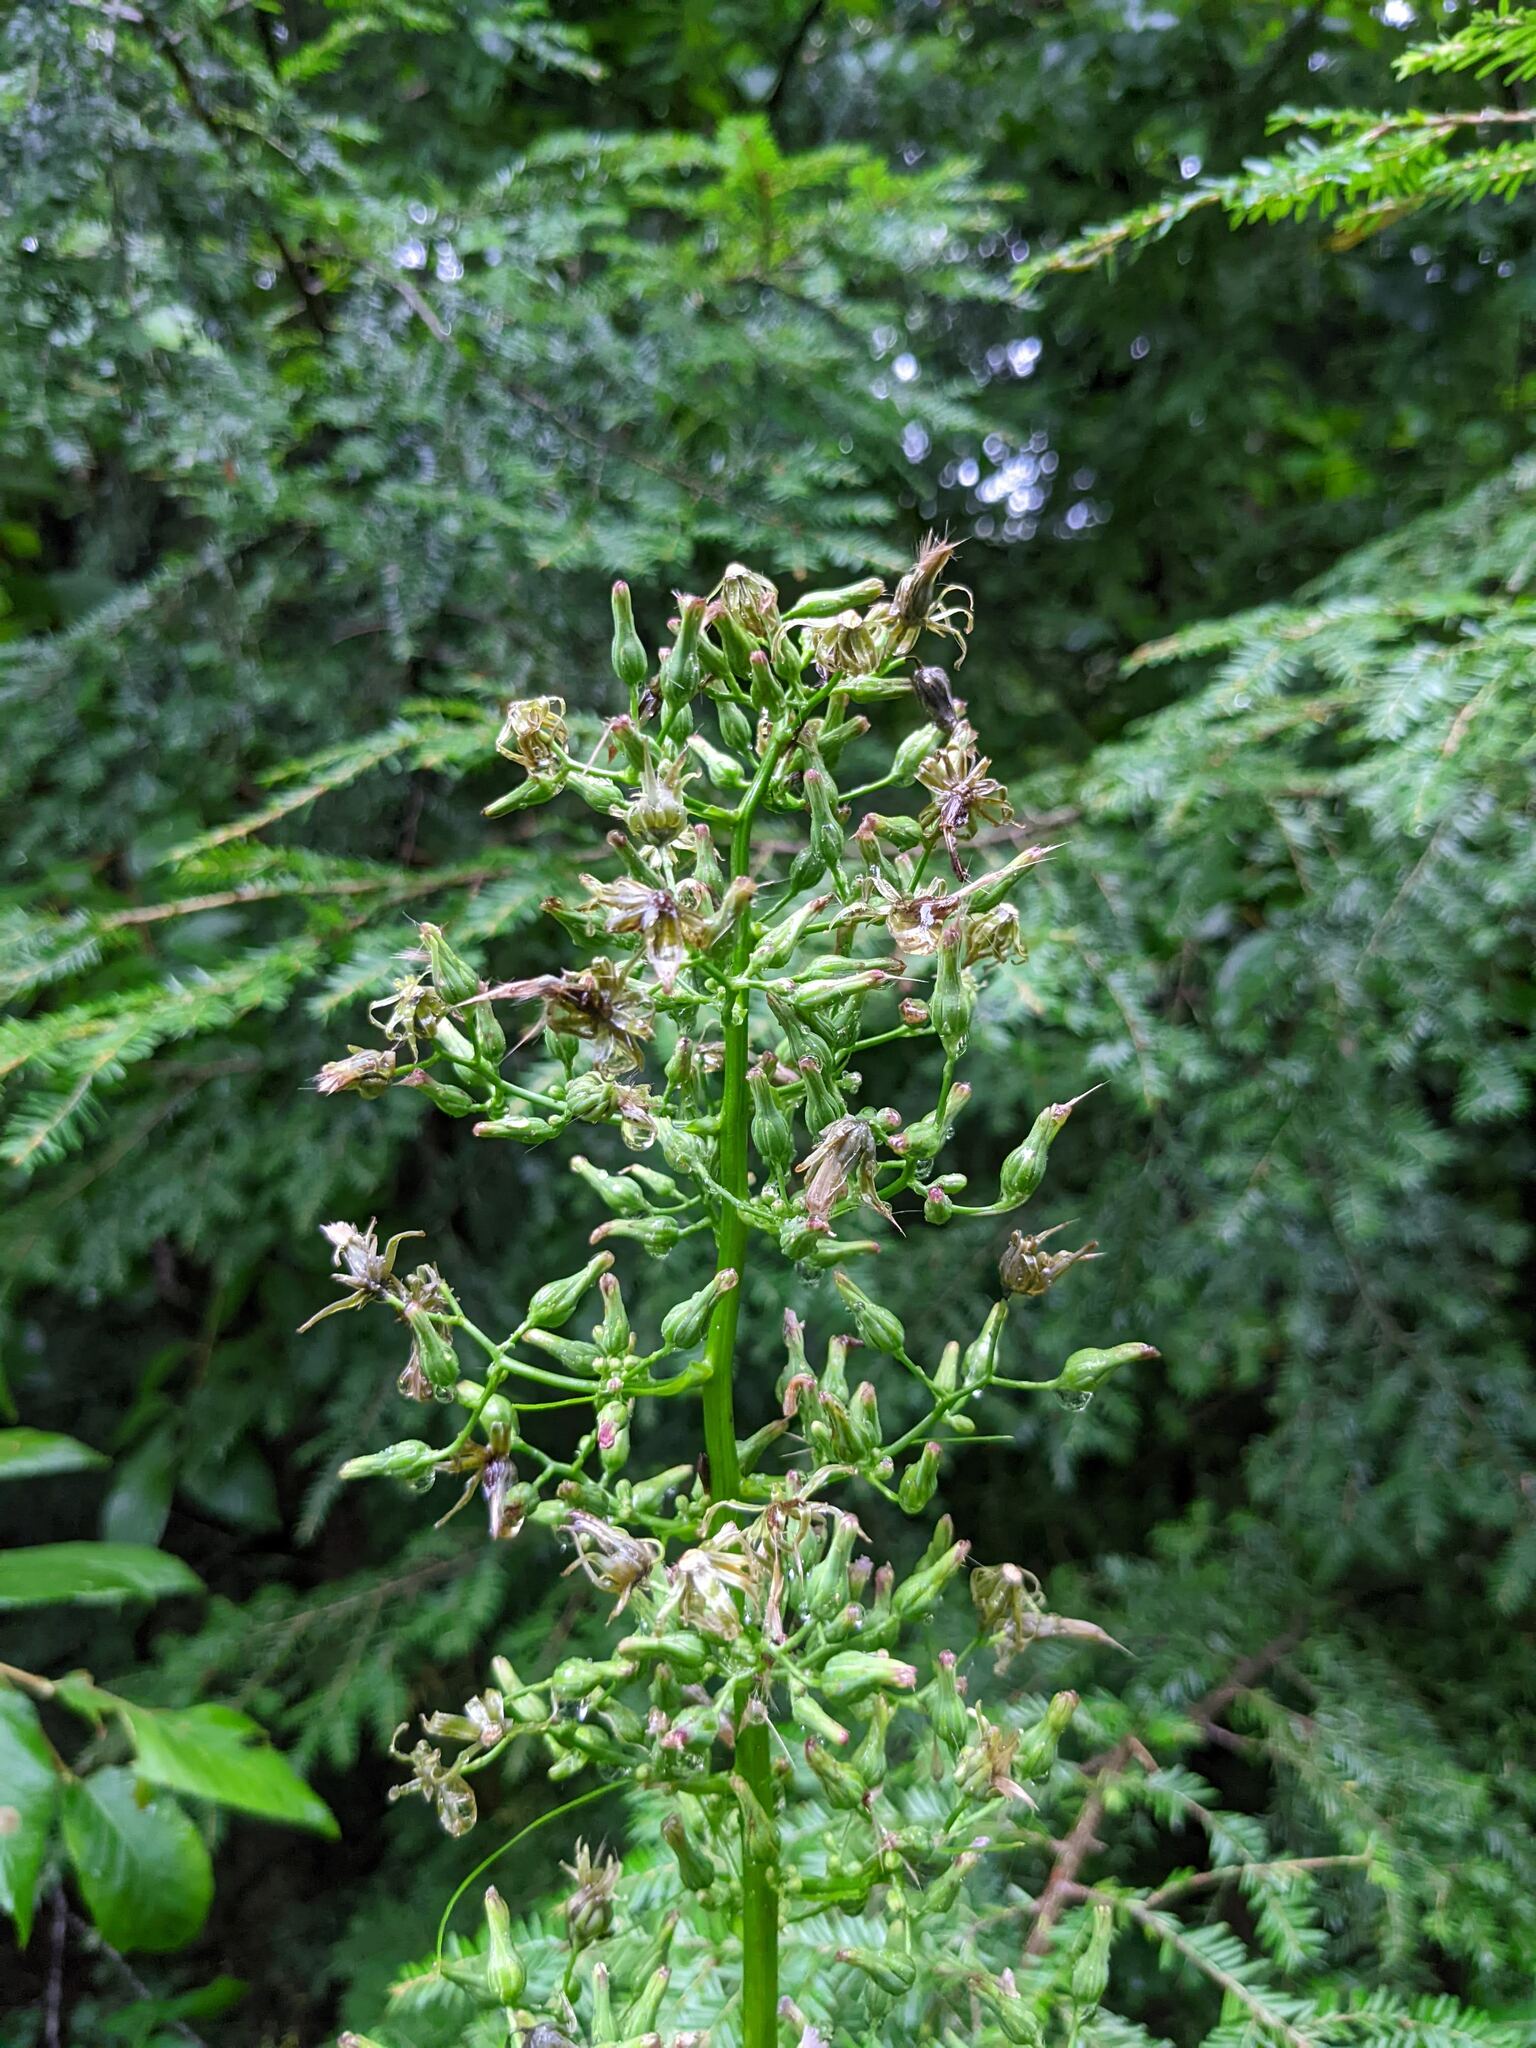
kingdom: Plantae
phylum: Tracheophyta
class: Magnoliopsida
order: Asterales
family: Asteraceae
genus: Lactuca
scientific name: Lactuca biennis
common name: Blue wood lettuce
